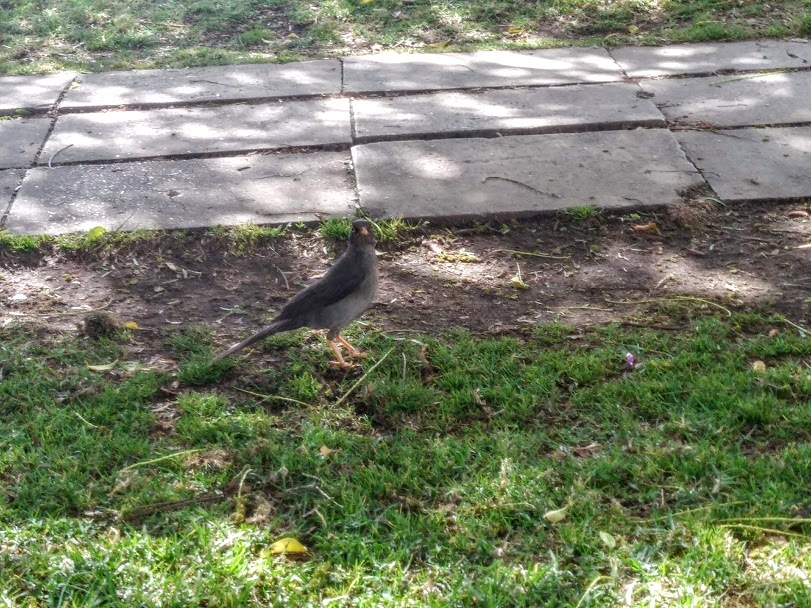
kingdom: Animalia
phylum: Chordata
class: Aves
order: Passeriformes
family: Turdidae
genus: Turdus
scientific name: Turdus fuscater
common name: Great thrush
